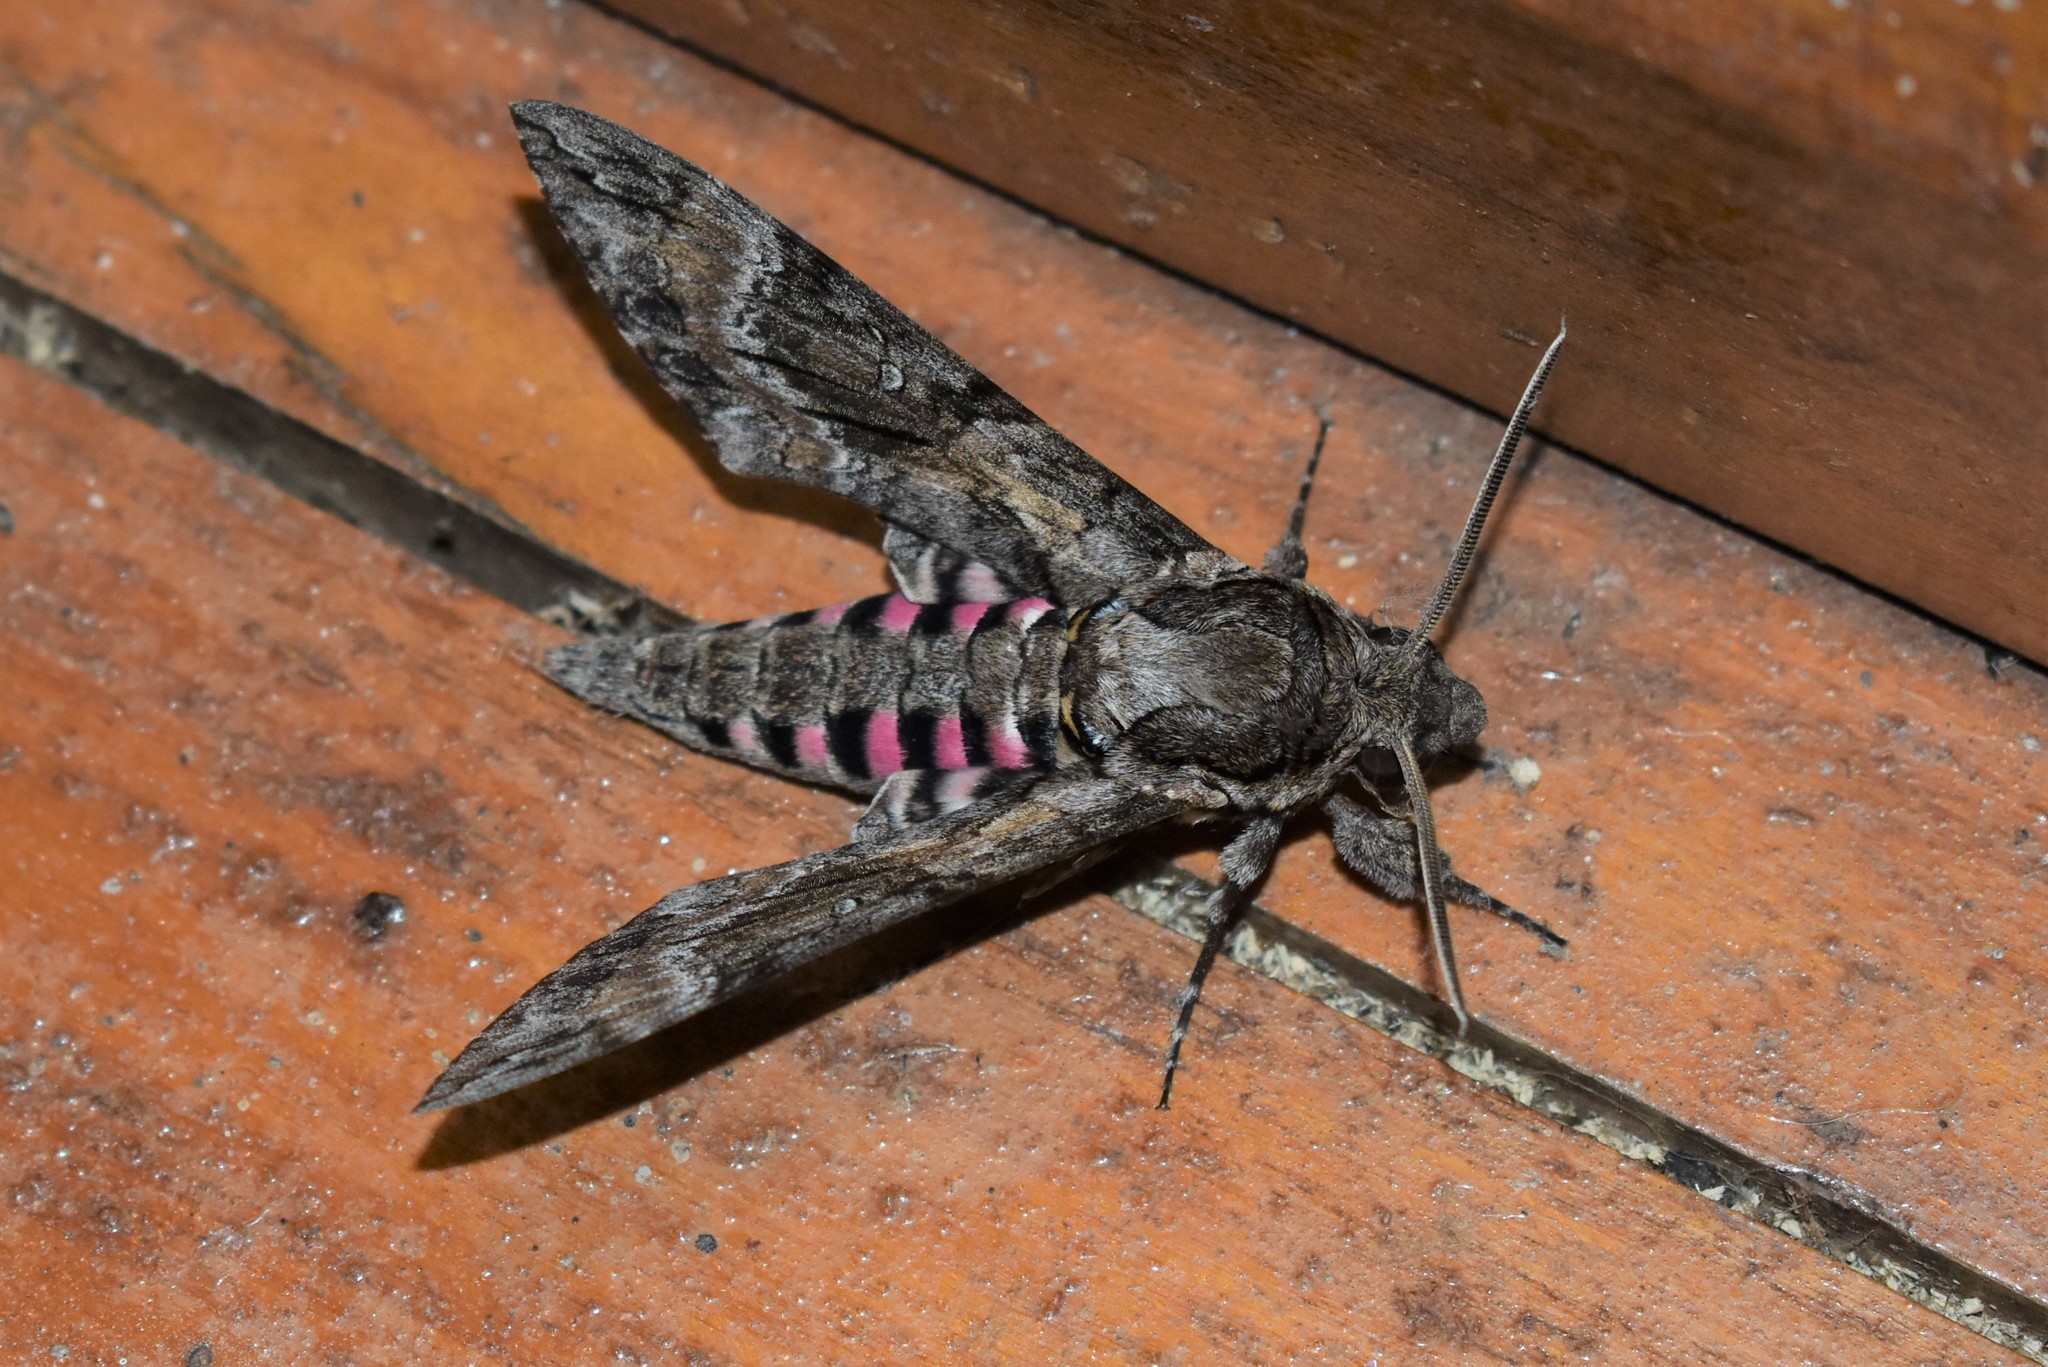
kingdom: Animalia
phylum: Arthropoda
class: Insecta
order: Lepidoptera
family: Sphingidae
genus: Agrius
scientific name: Agrius cingulata
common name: Pink-spotted hawkmoth
